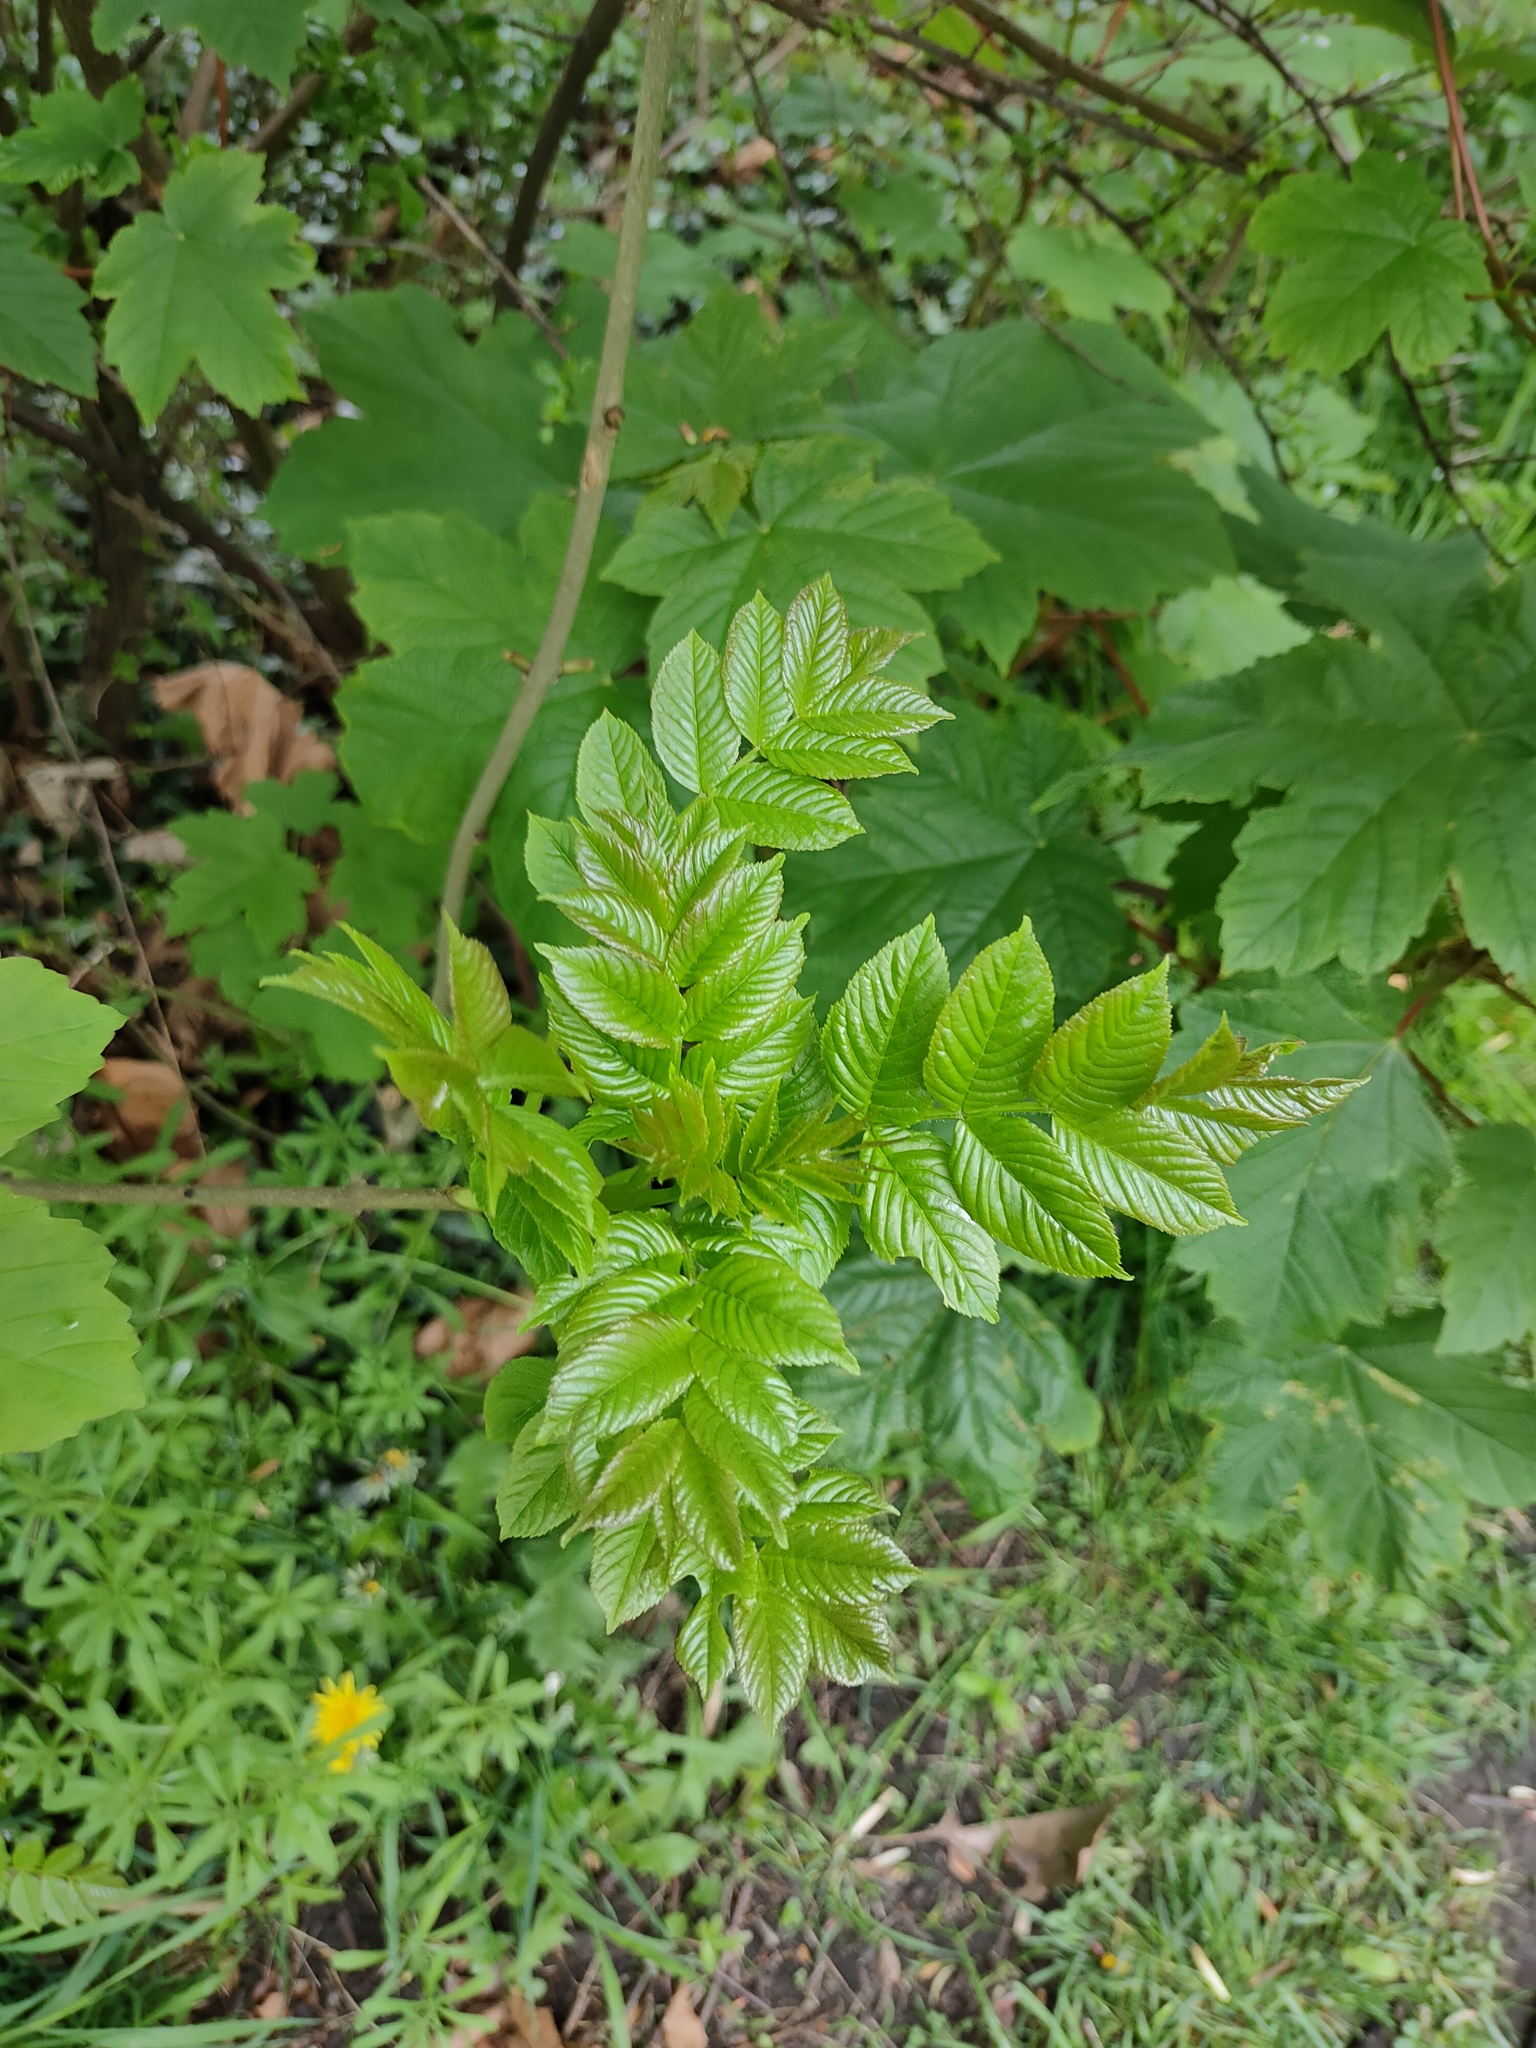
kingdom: Plantae
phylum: Tracheophyta
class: Magnoliopsida
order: Lamiales
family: Oleaceae
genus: Fraxinus
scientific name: Fraxinus excelsior
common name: European ash
